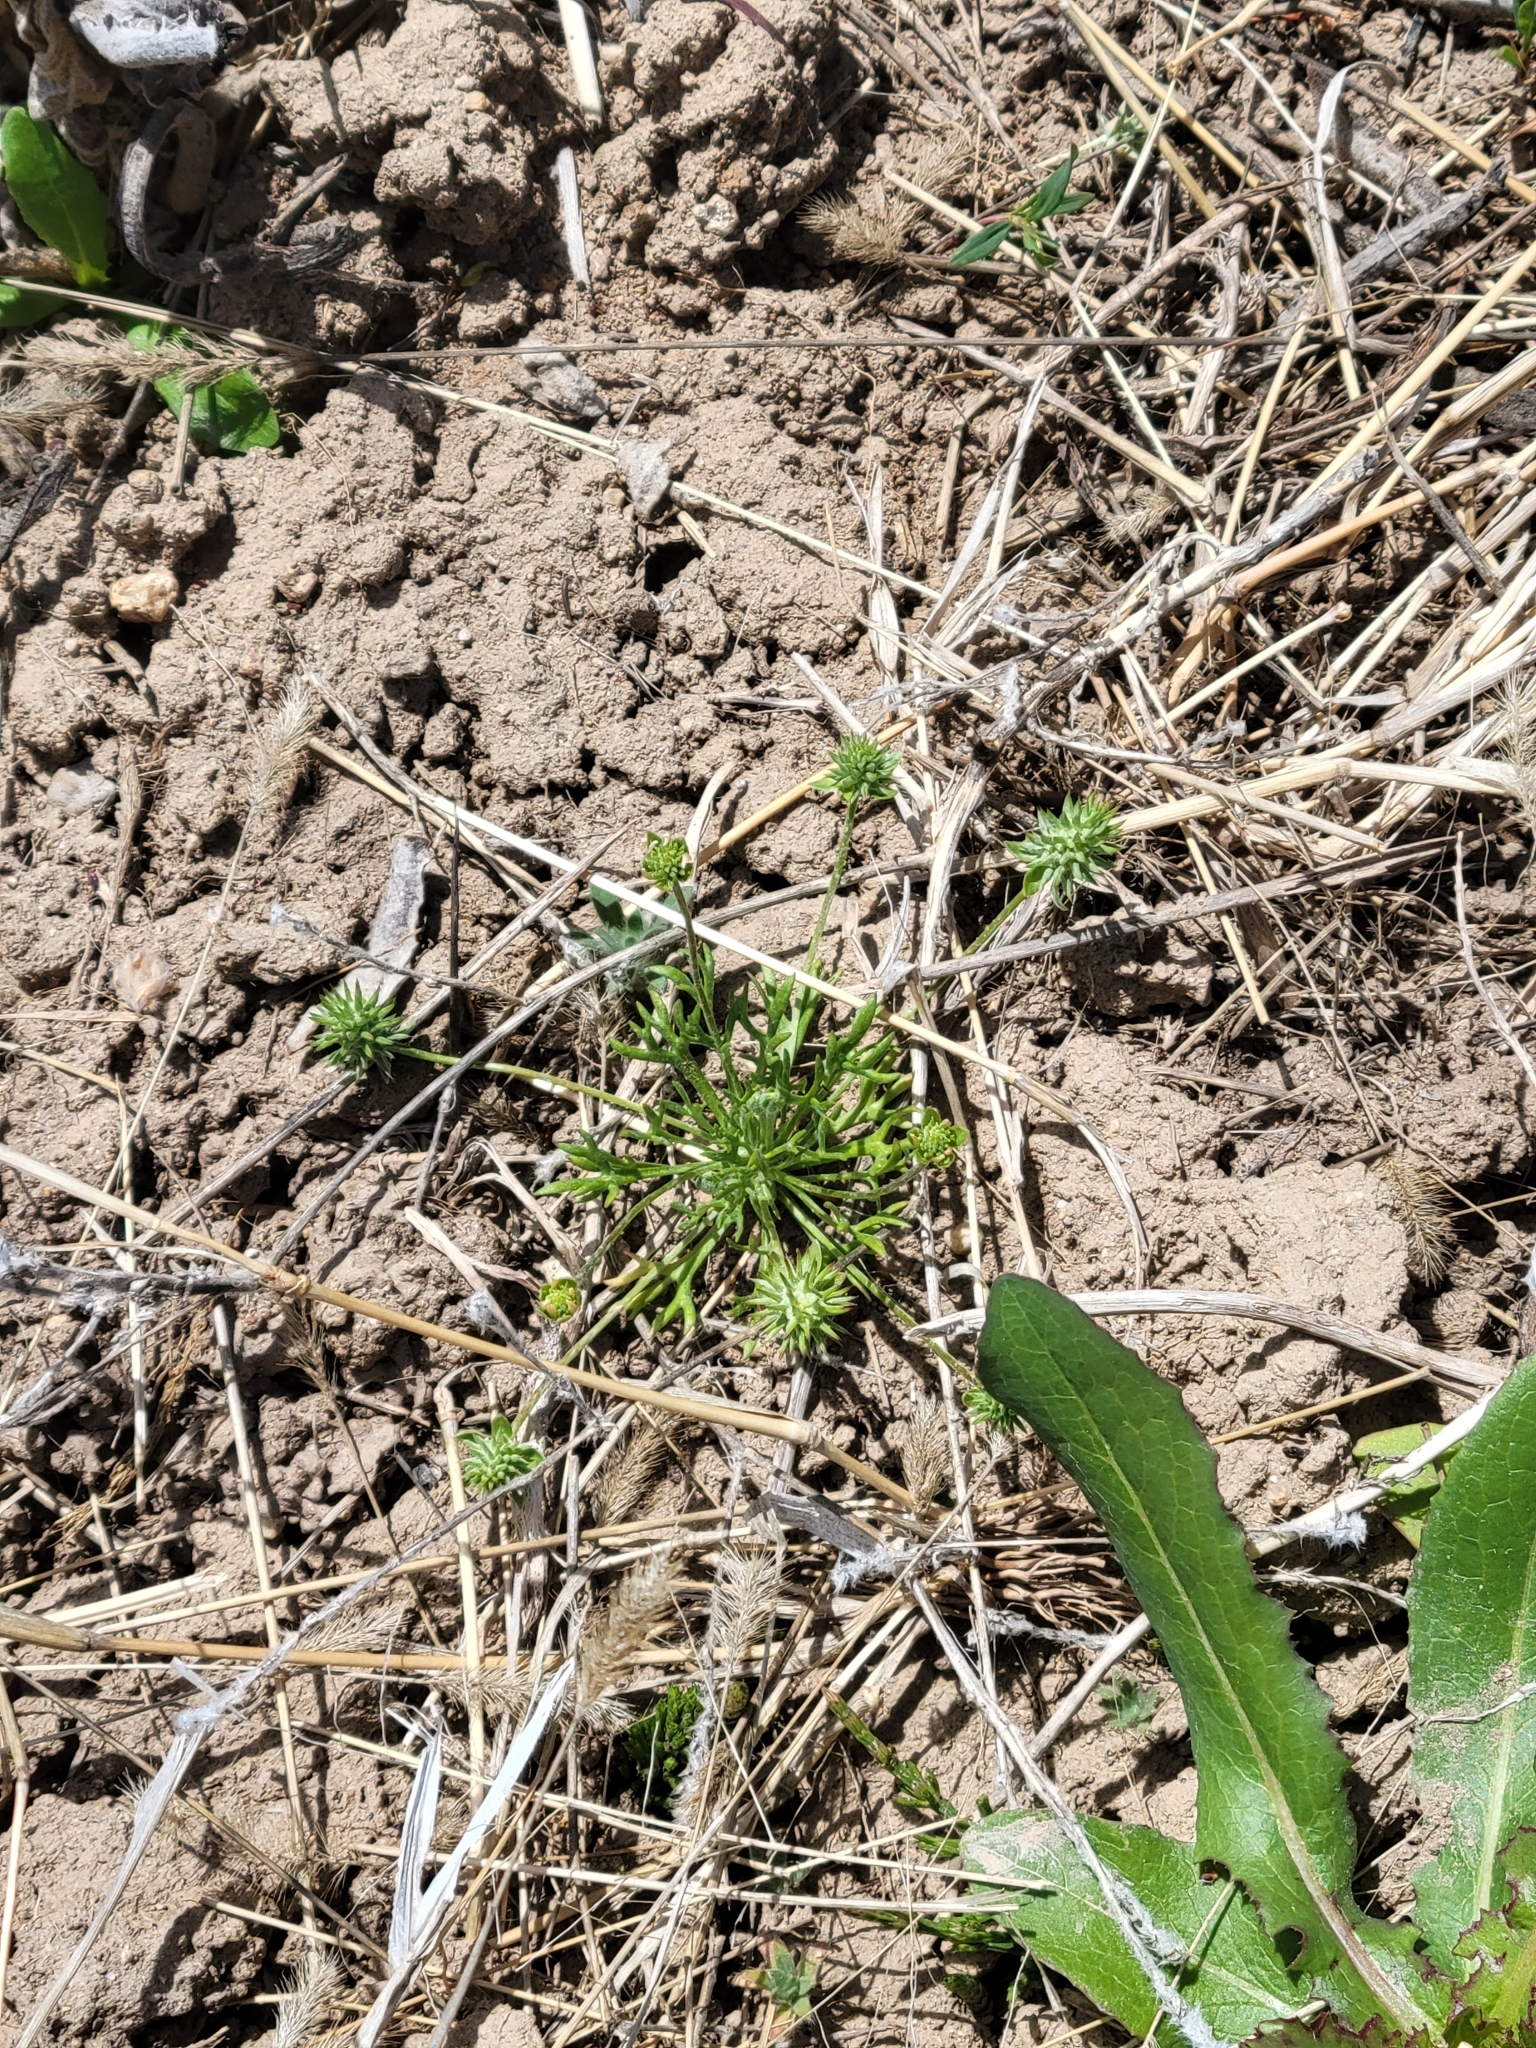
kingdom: Plantae
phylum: Tracheophyta
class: Magnoliopsida
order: Ranunculales
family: Ranunculaceae
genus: Ceratocephala
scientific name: Ceratocephala orthoceras
